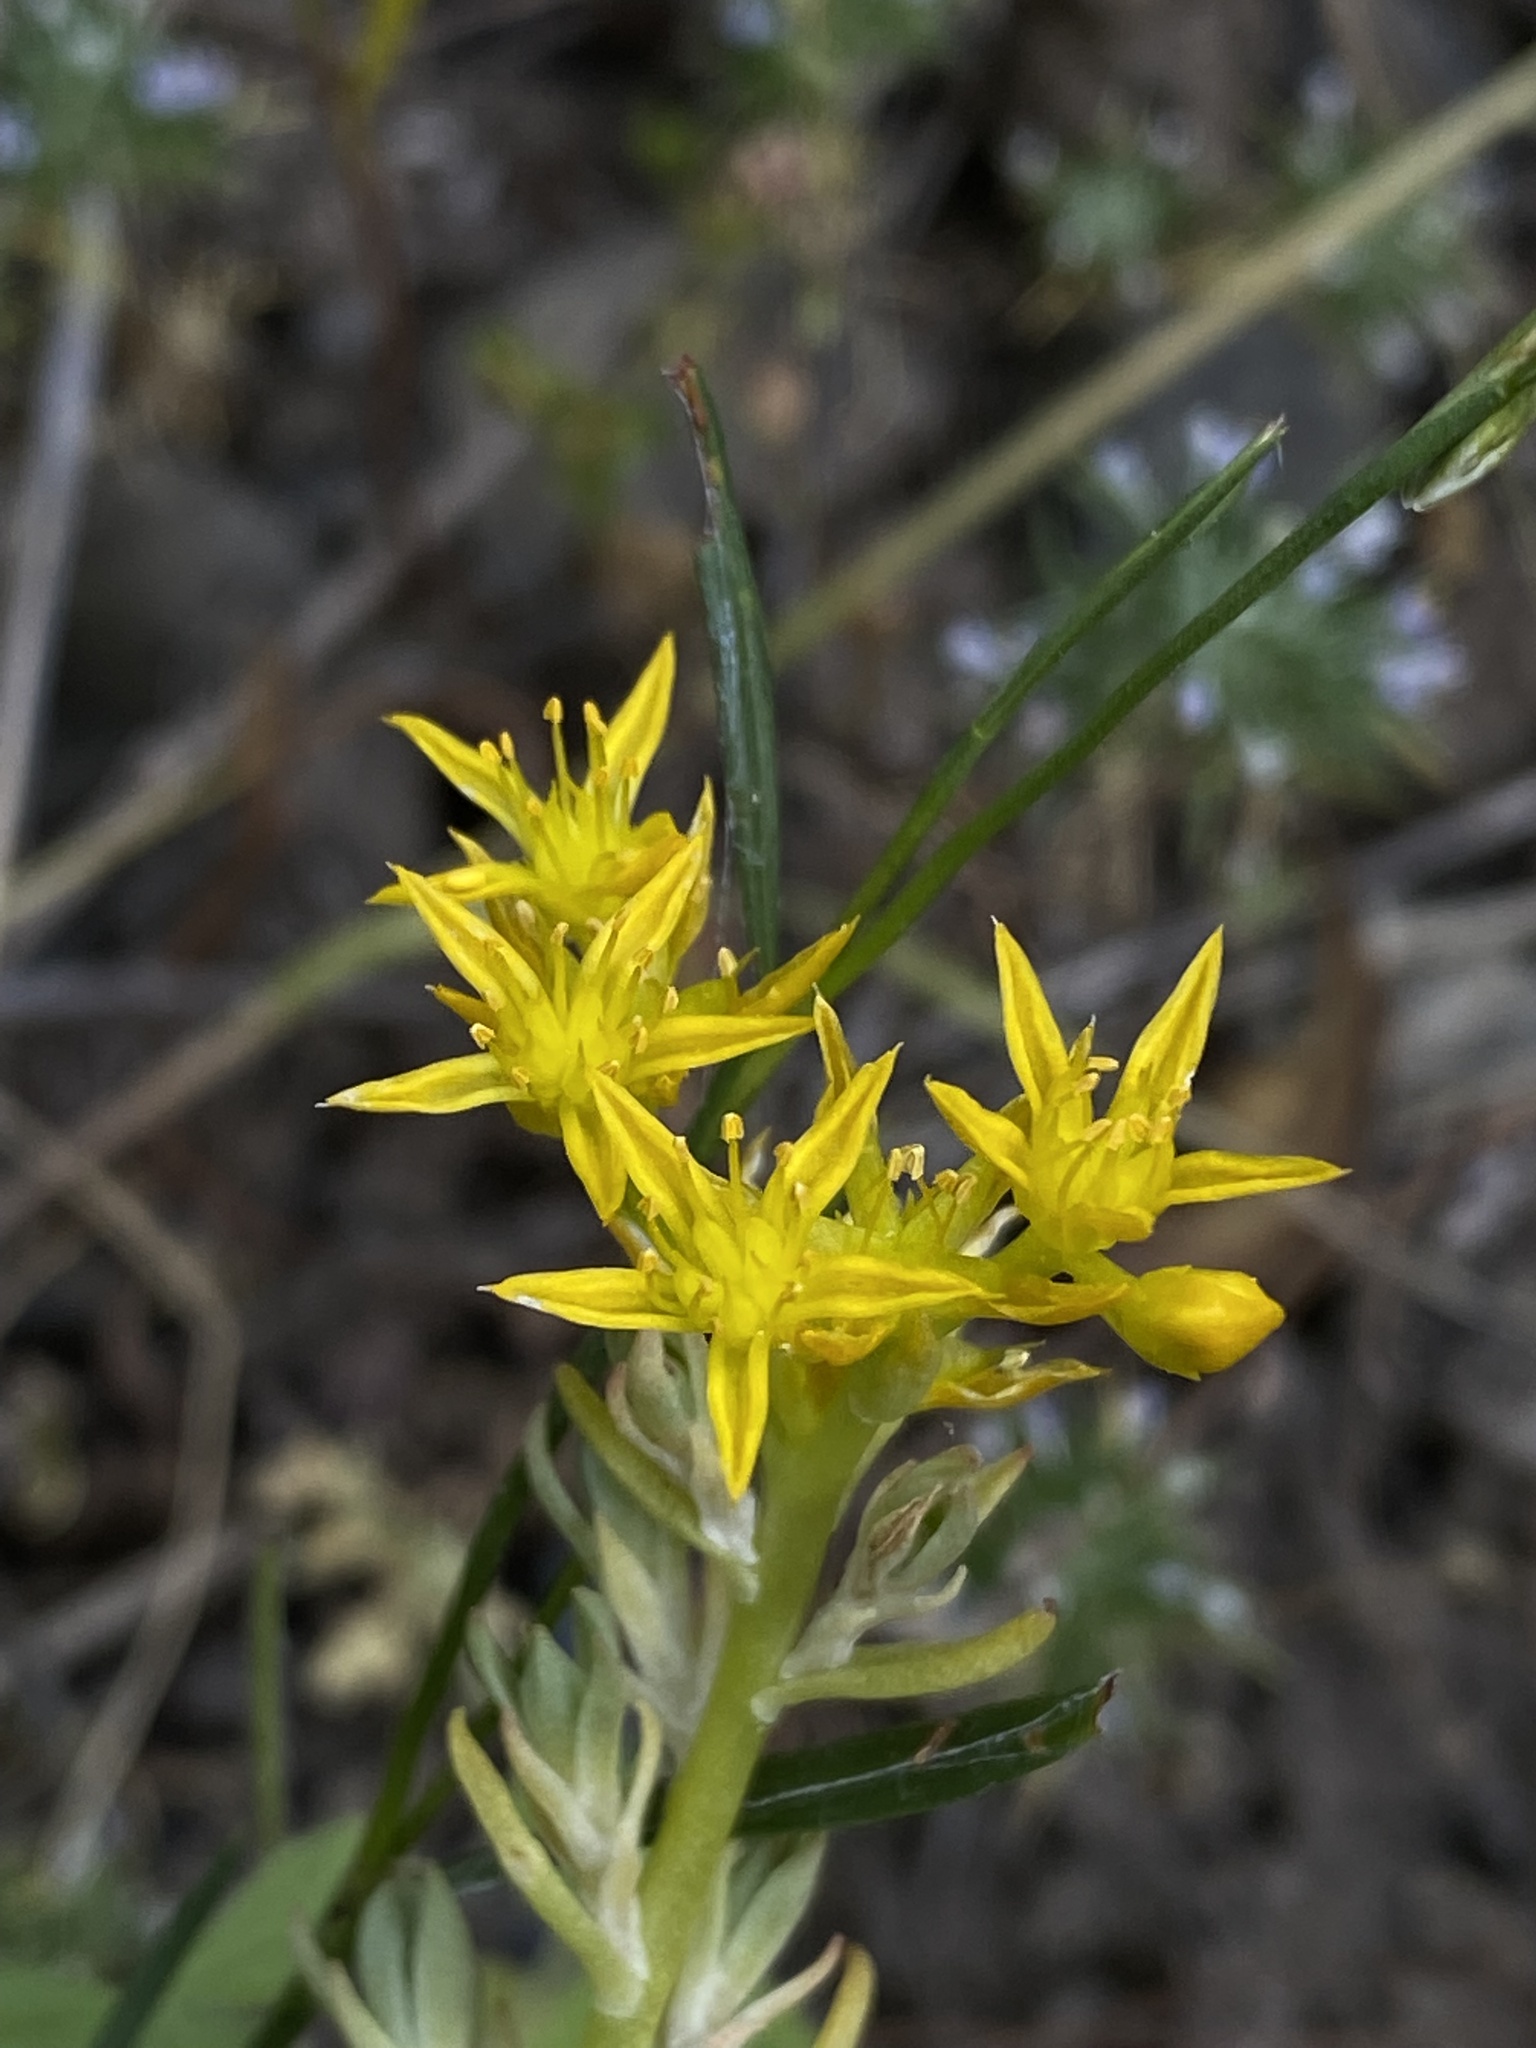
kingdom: Plantae
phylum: Tracheophyta
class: Magnoliopsida
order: Saxifragales
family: Crassulaceae
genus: Sedum
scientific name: Sedum stenopetalum
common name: Narrow-petaled stonecrop
